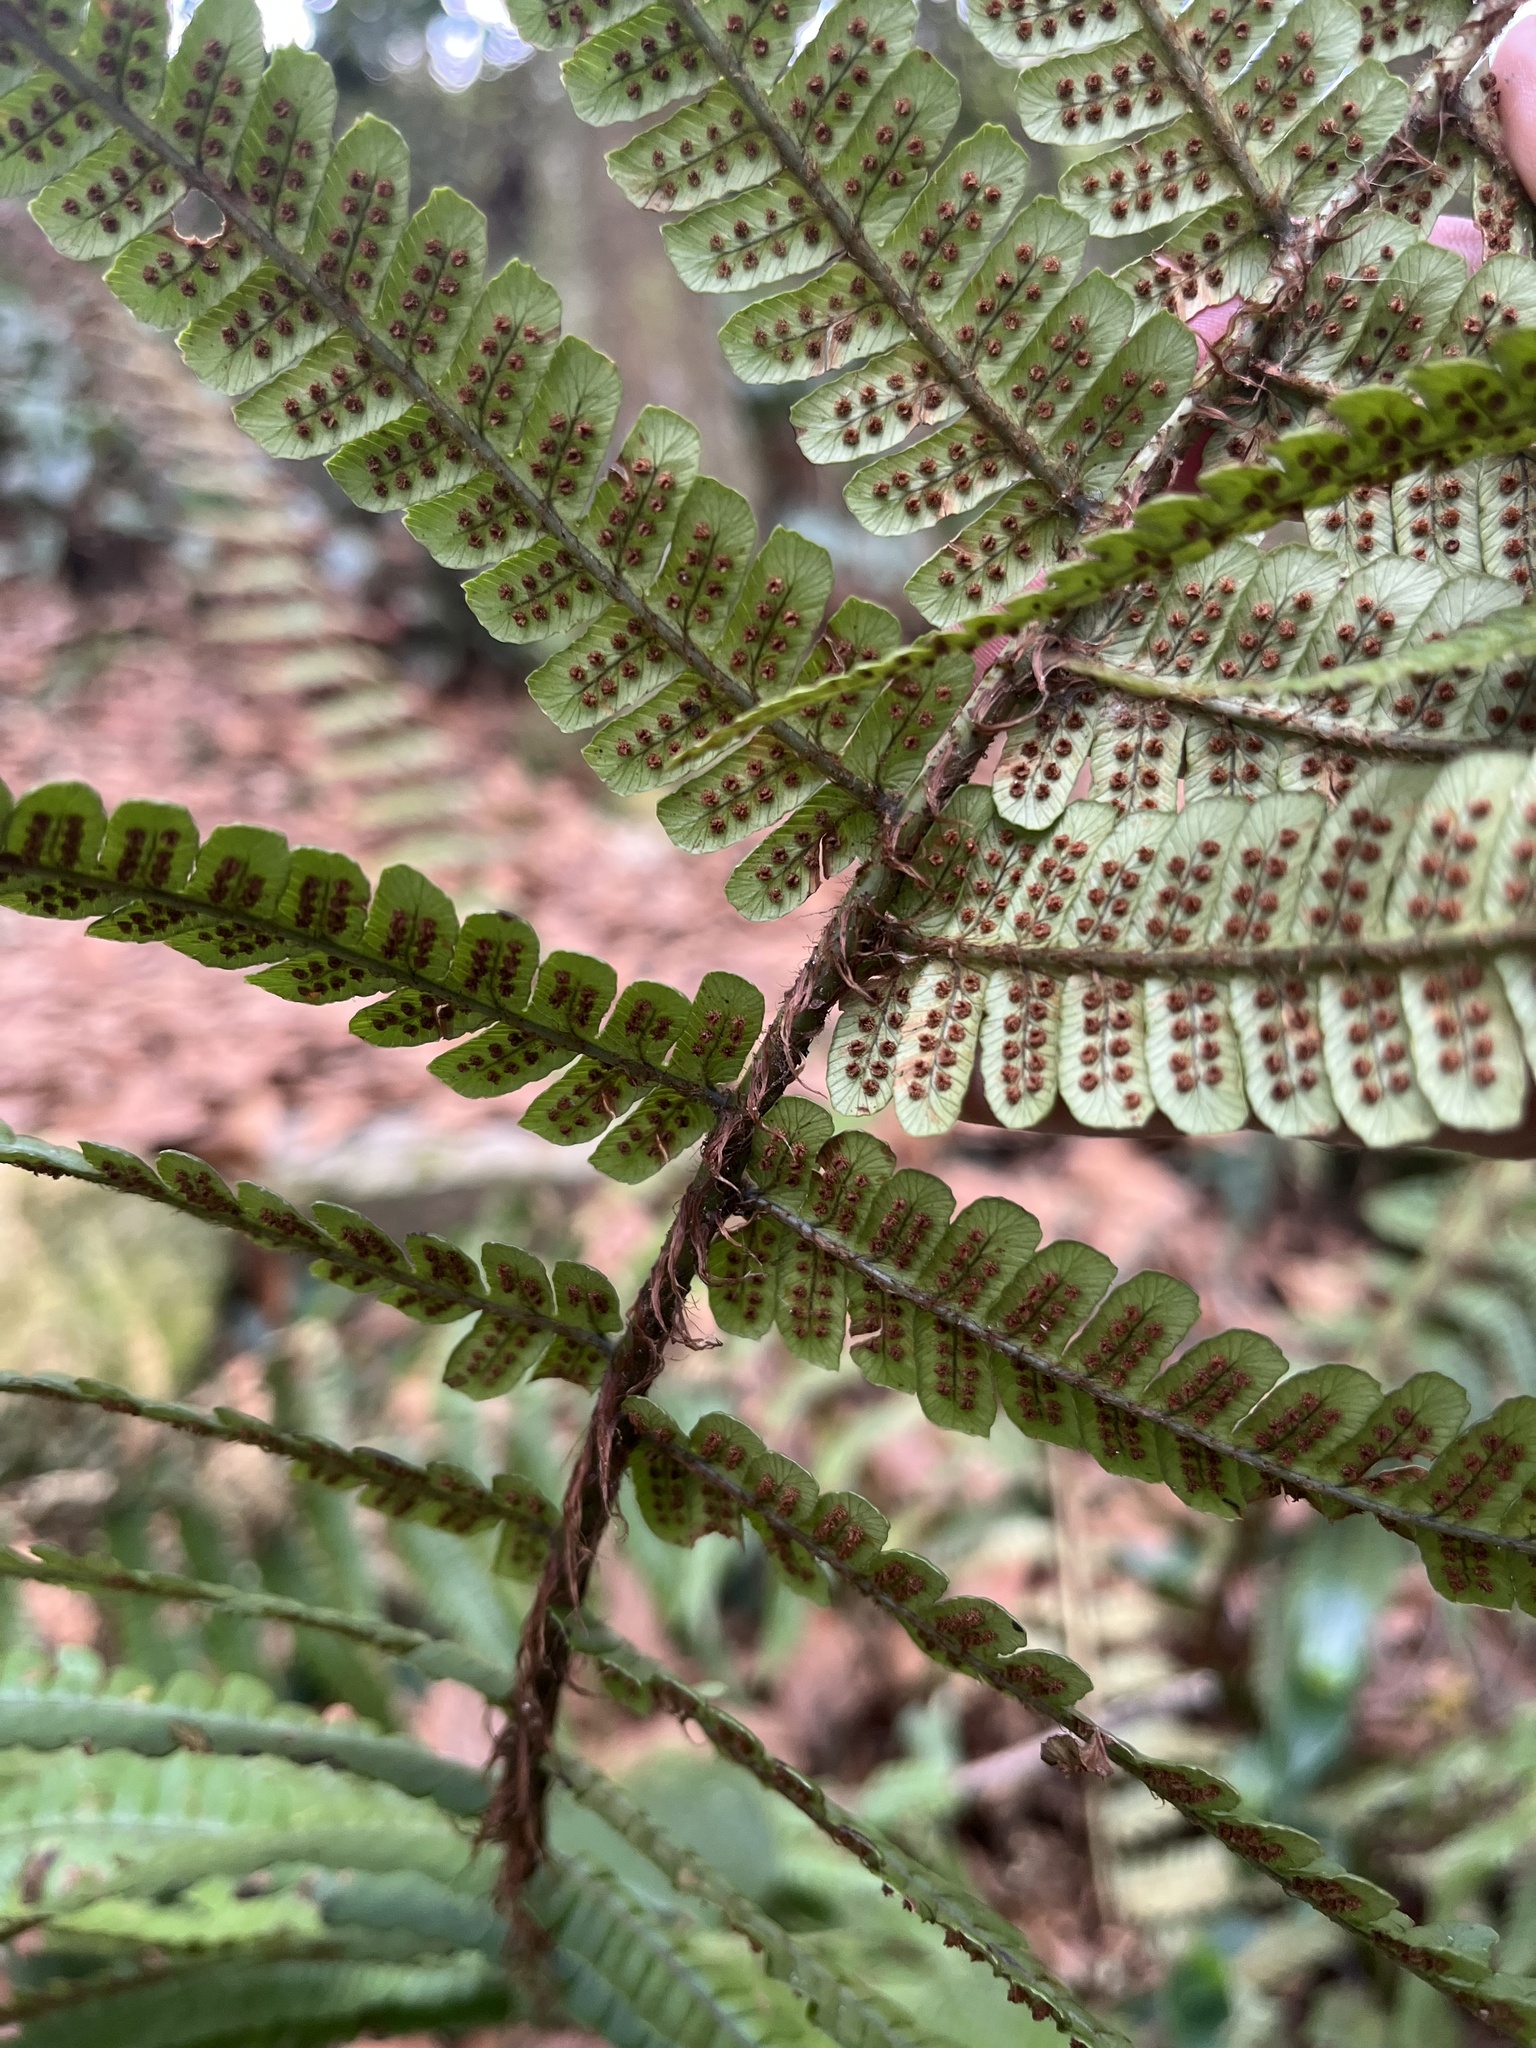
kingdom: Plantae
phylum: Tracheophyta
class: Polypodiopsida
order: Polypodiales
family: Dryopteridaceae
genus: Dryopteris
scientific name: Dryopteris wallichiana
